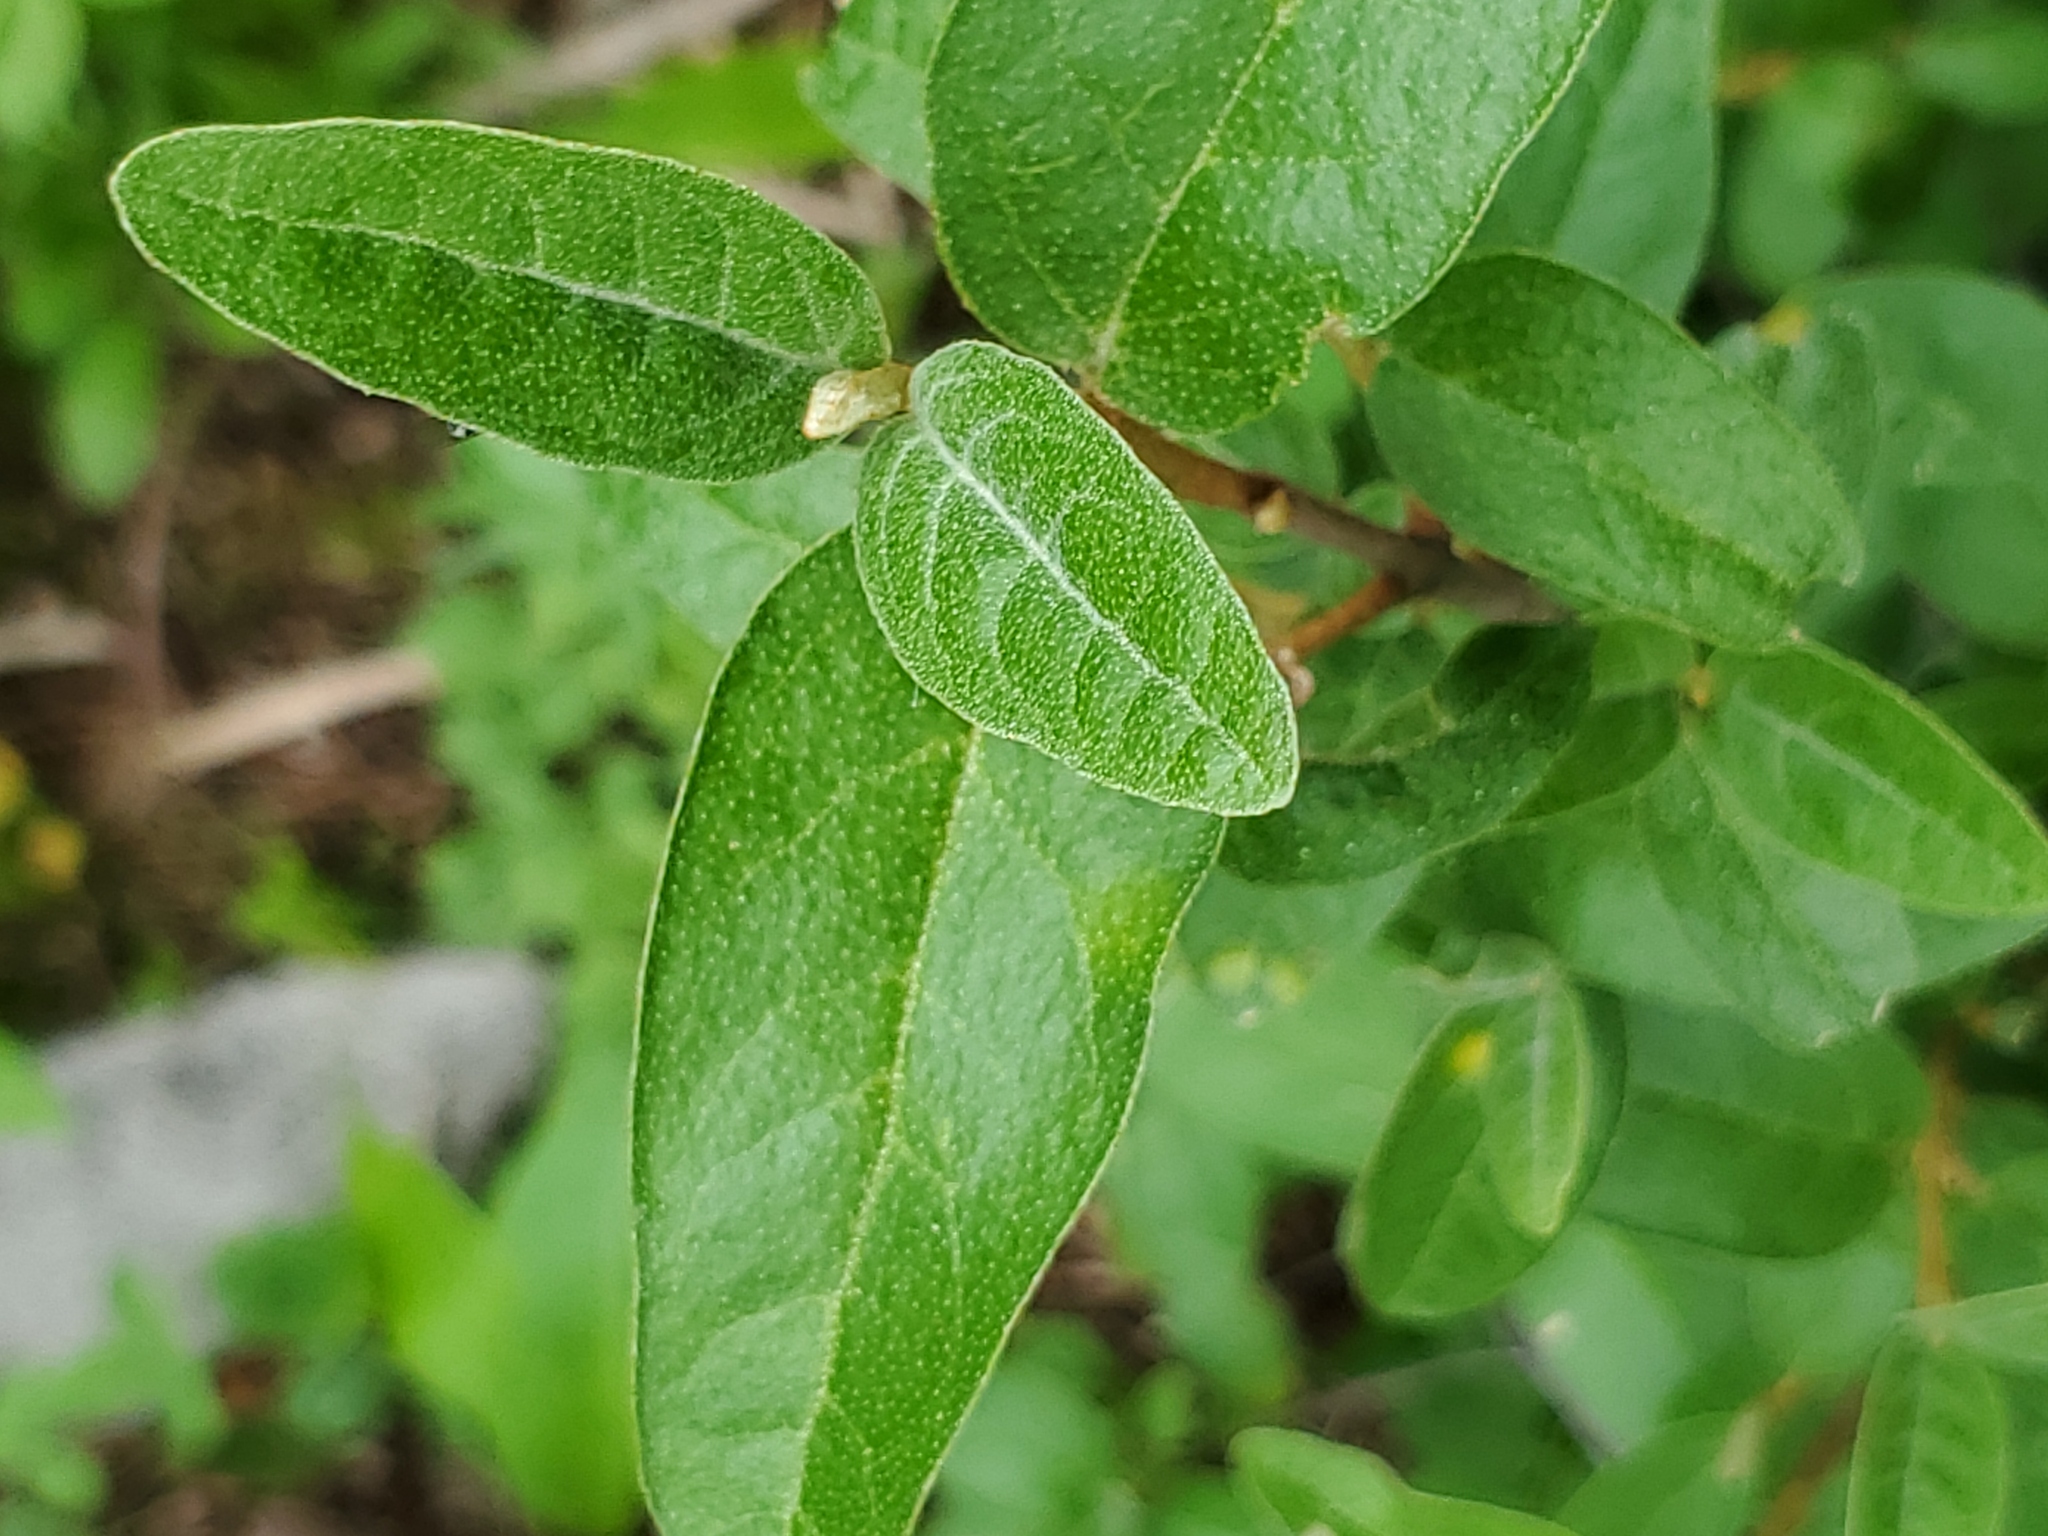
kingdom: Plantae
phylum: Tracheophyta
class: Magnoliopsida
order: Rosales
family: Elaeagnaceae
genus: Shepherdia
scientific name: Shepherdia canadensis
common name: Soapberry
